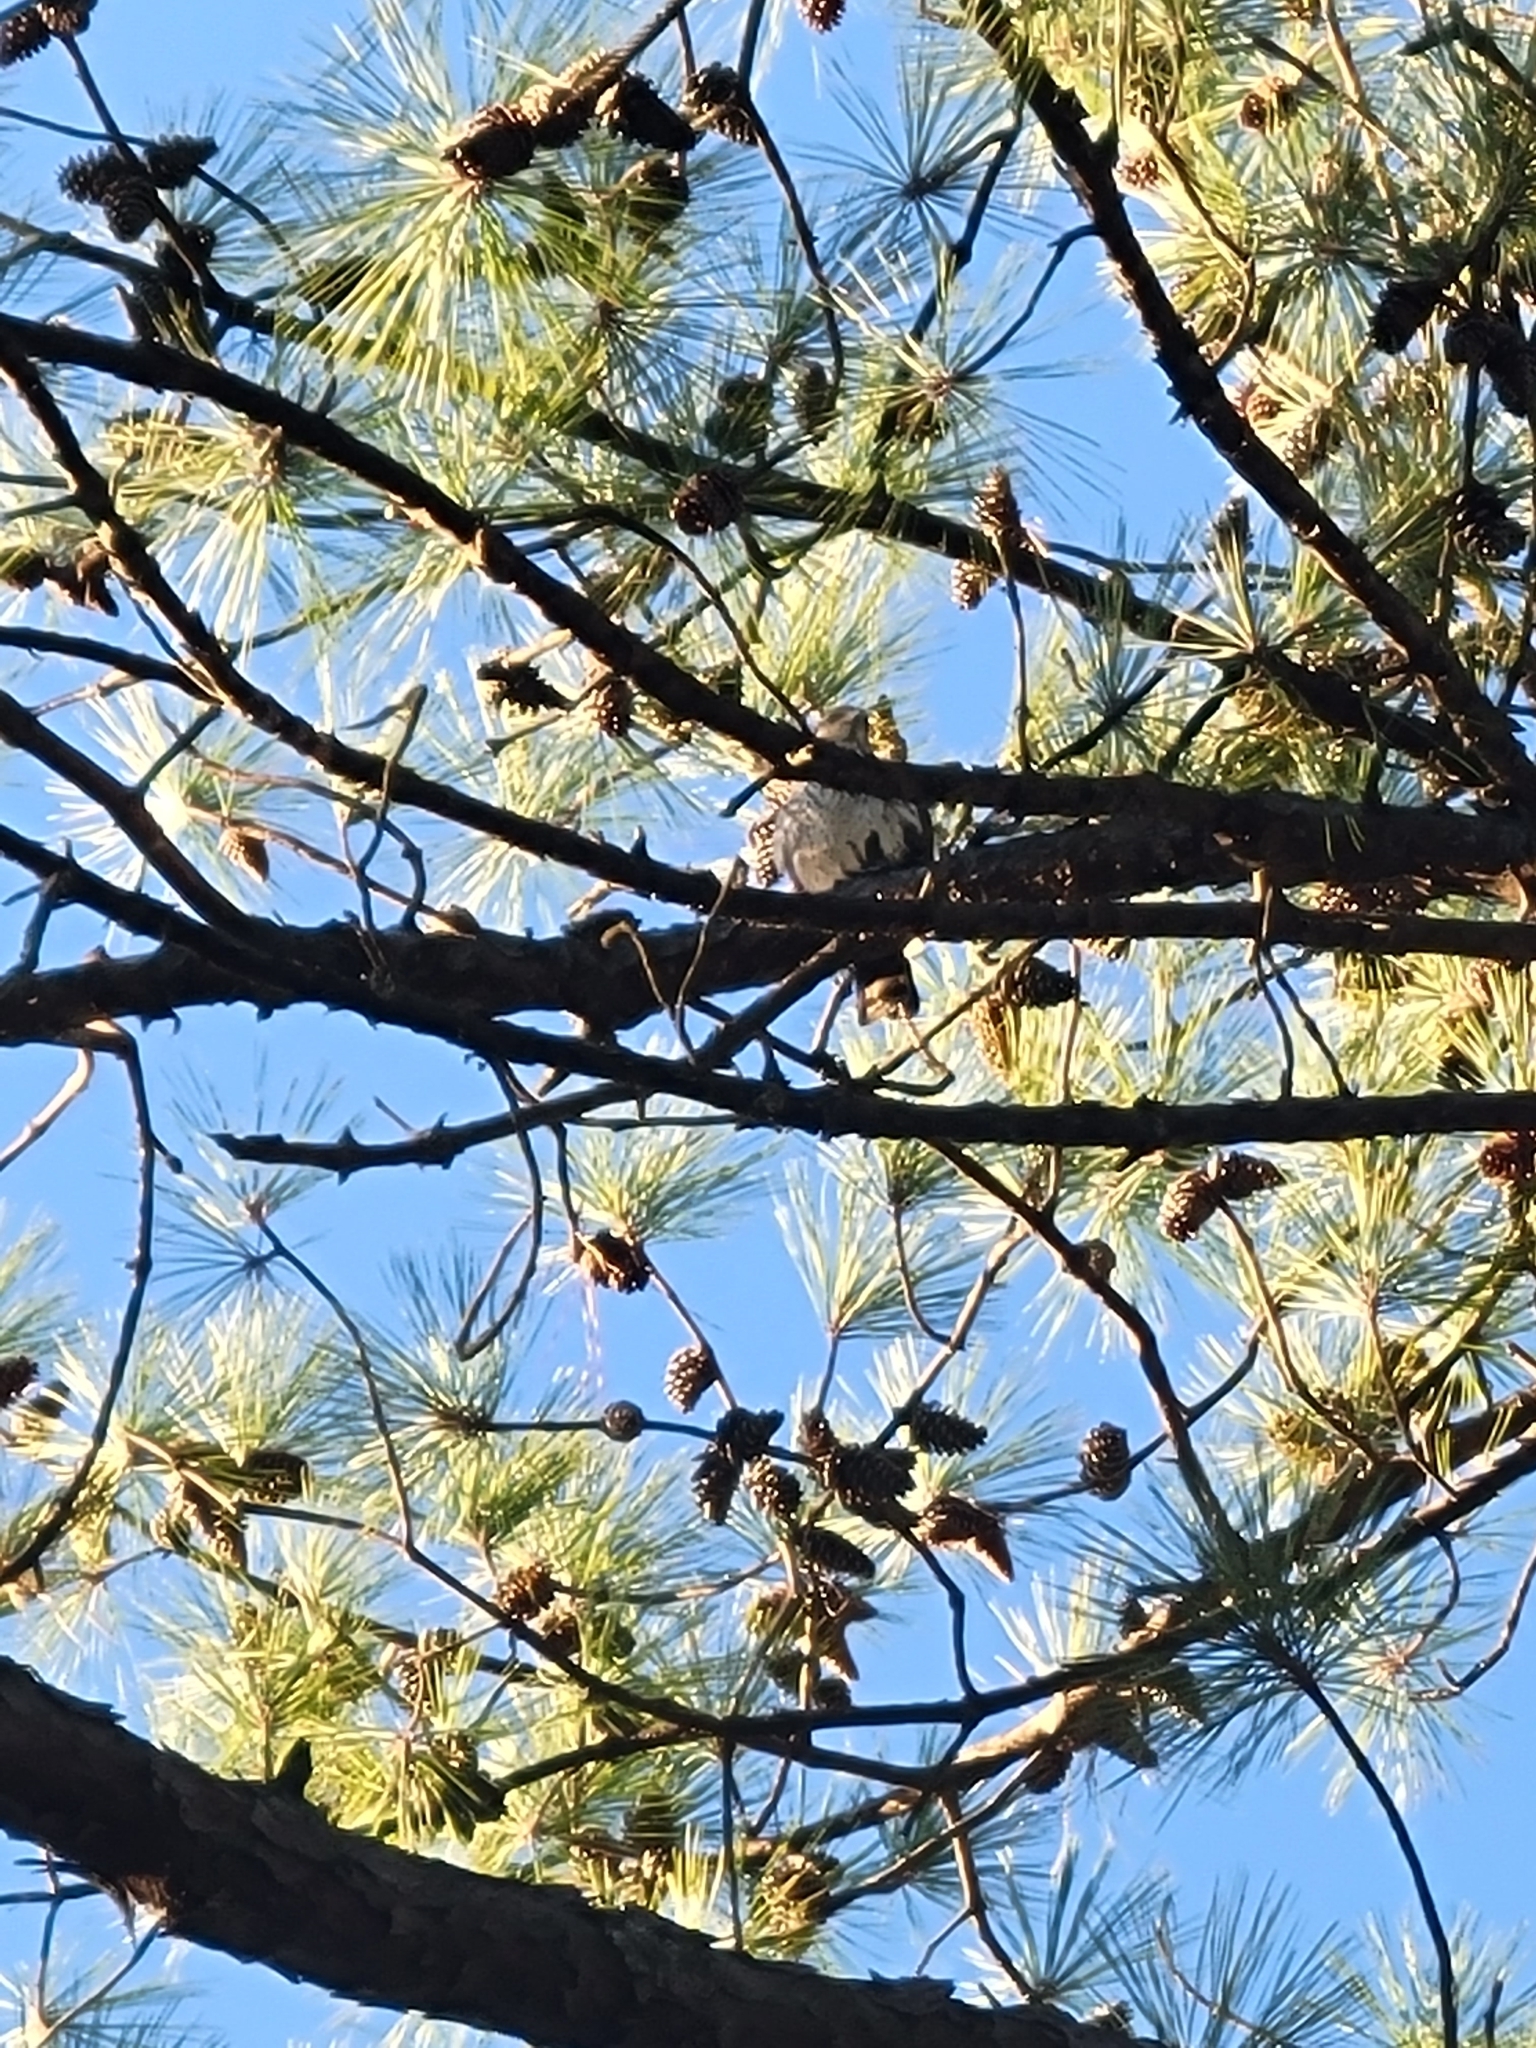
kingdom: Animalia
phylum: Chordata
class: Aves
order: Accipitriformes
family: Accipitridae
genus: Accipiter
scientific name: Accipiter cooperii
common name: Cooper's hawk
